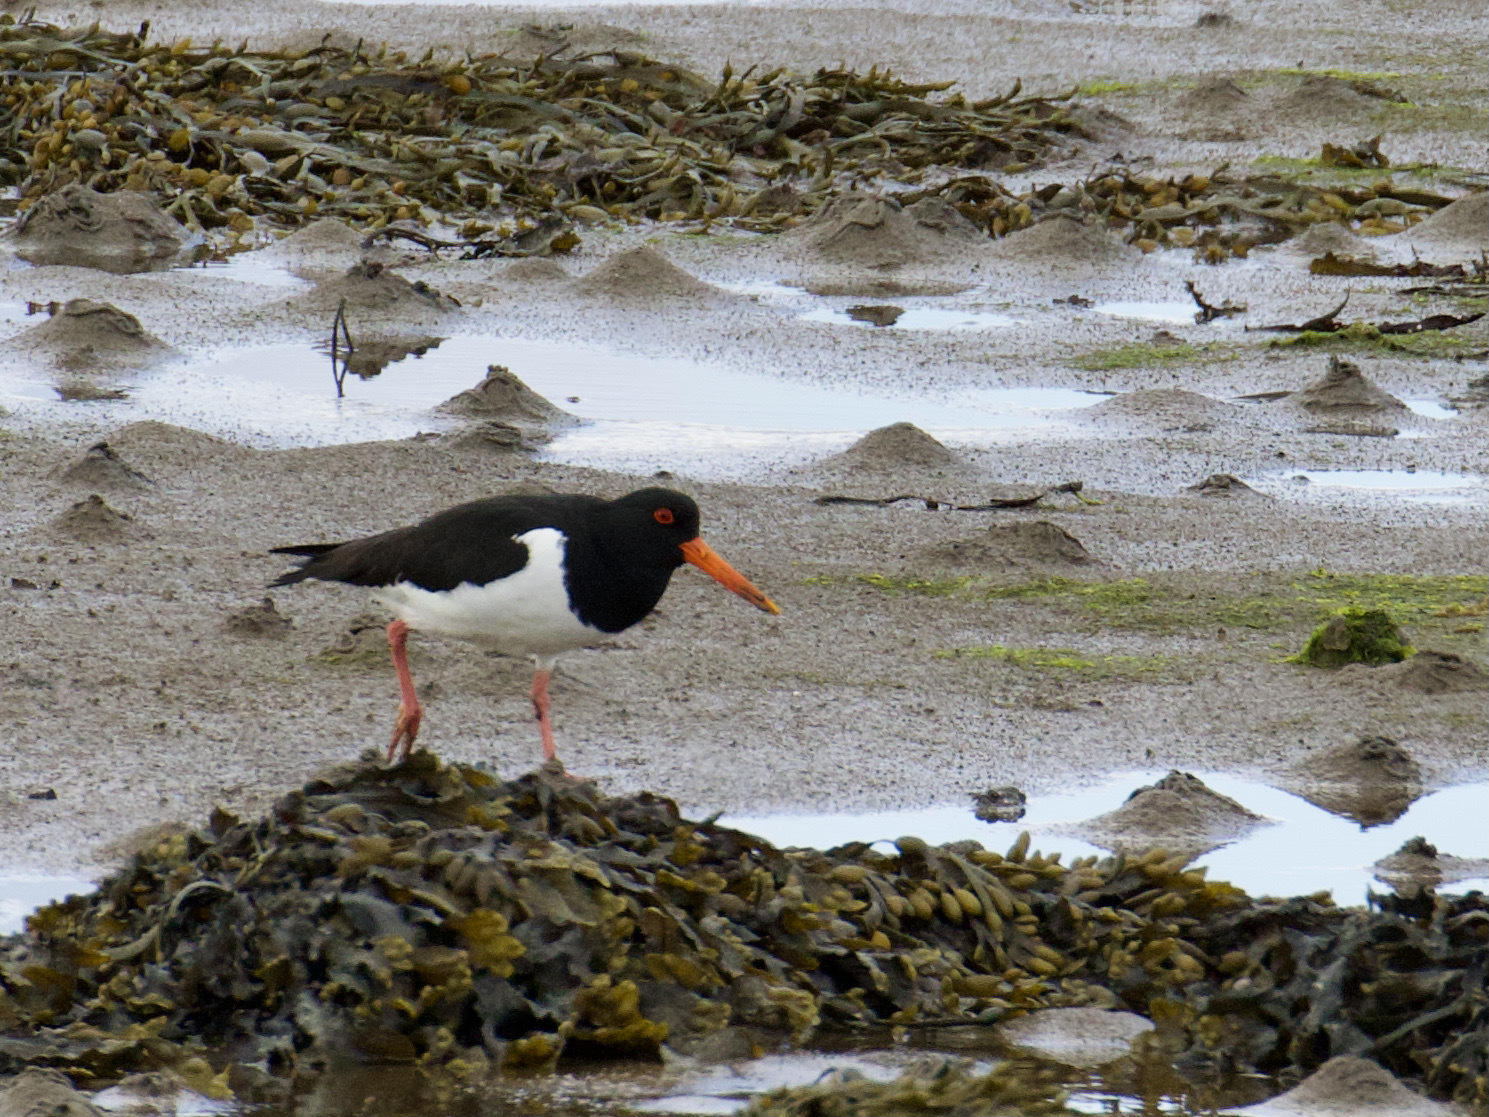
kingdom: Animalia
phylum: Chordata
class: Aves
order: Charadriiformes
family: Haematopodidae
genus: Haematopus
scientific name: Haematopus ostralegus
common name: Eurasian oystercatcher
